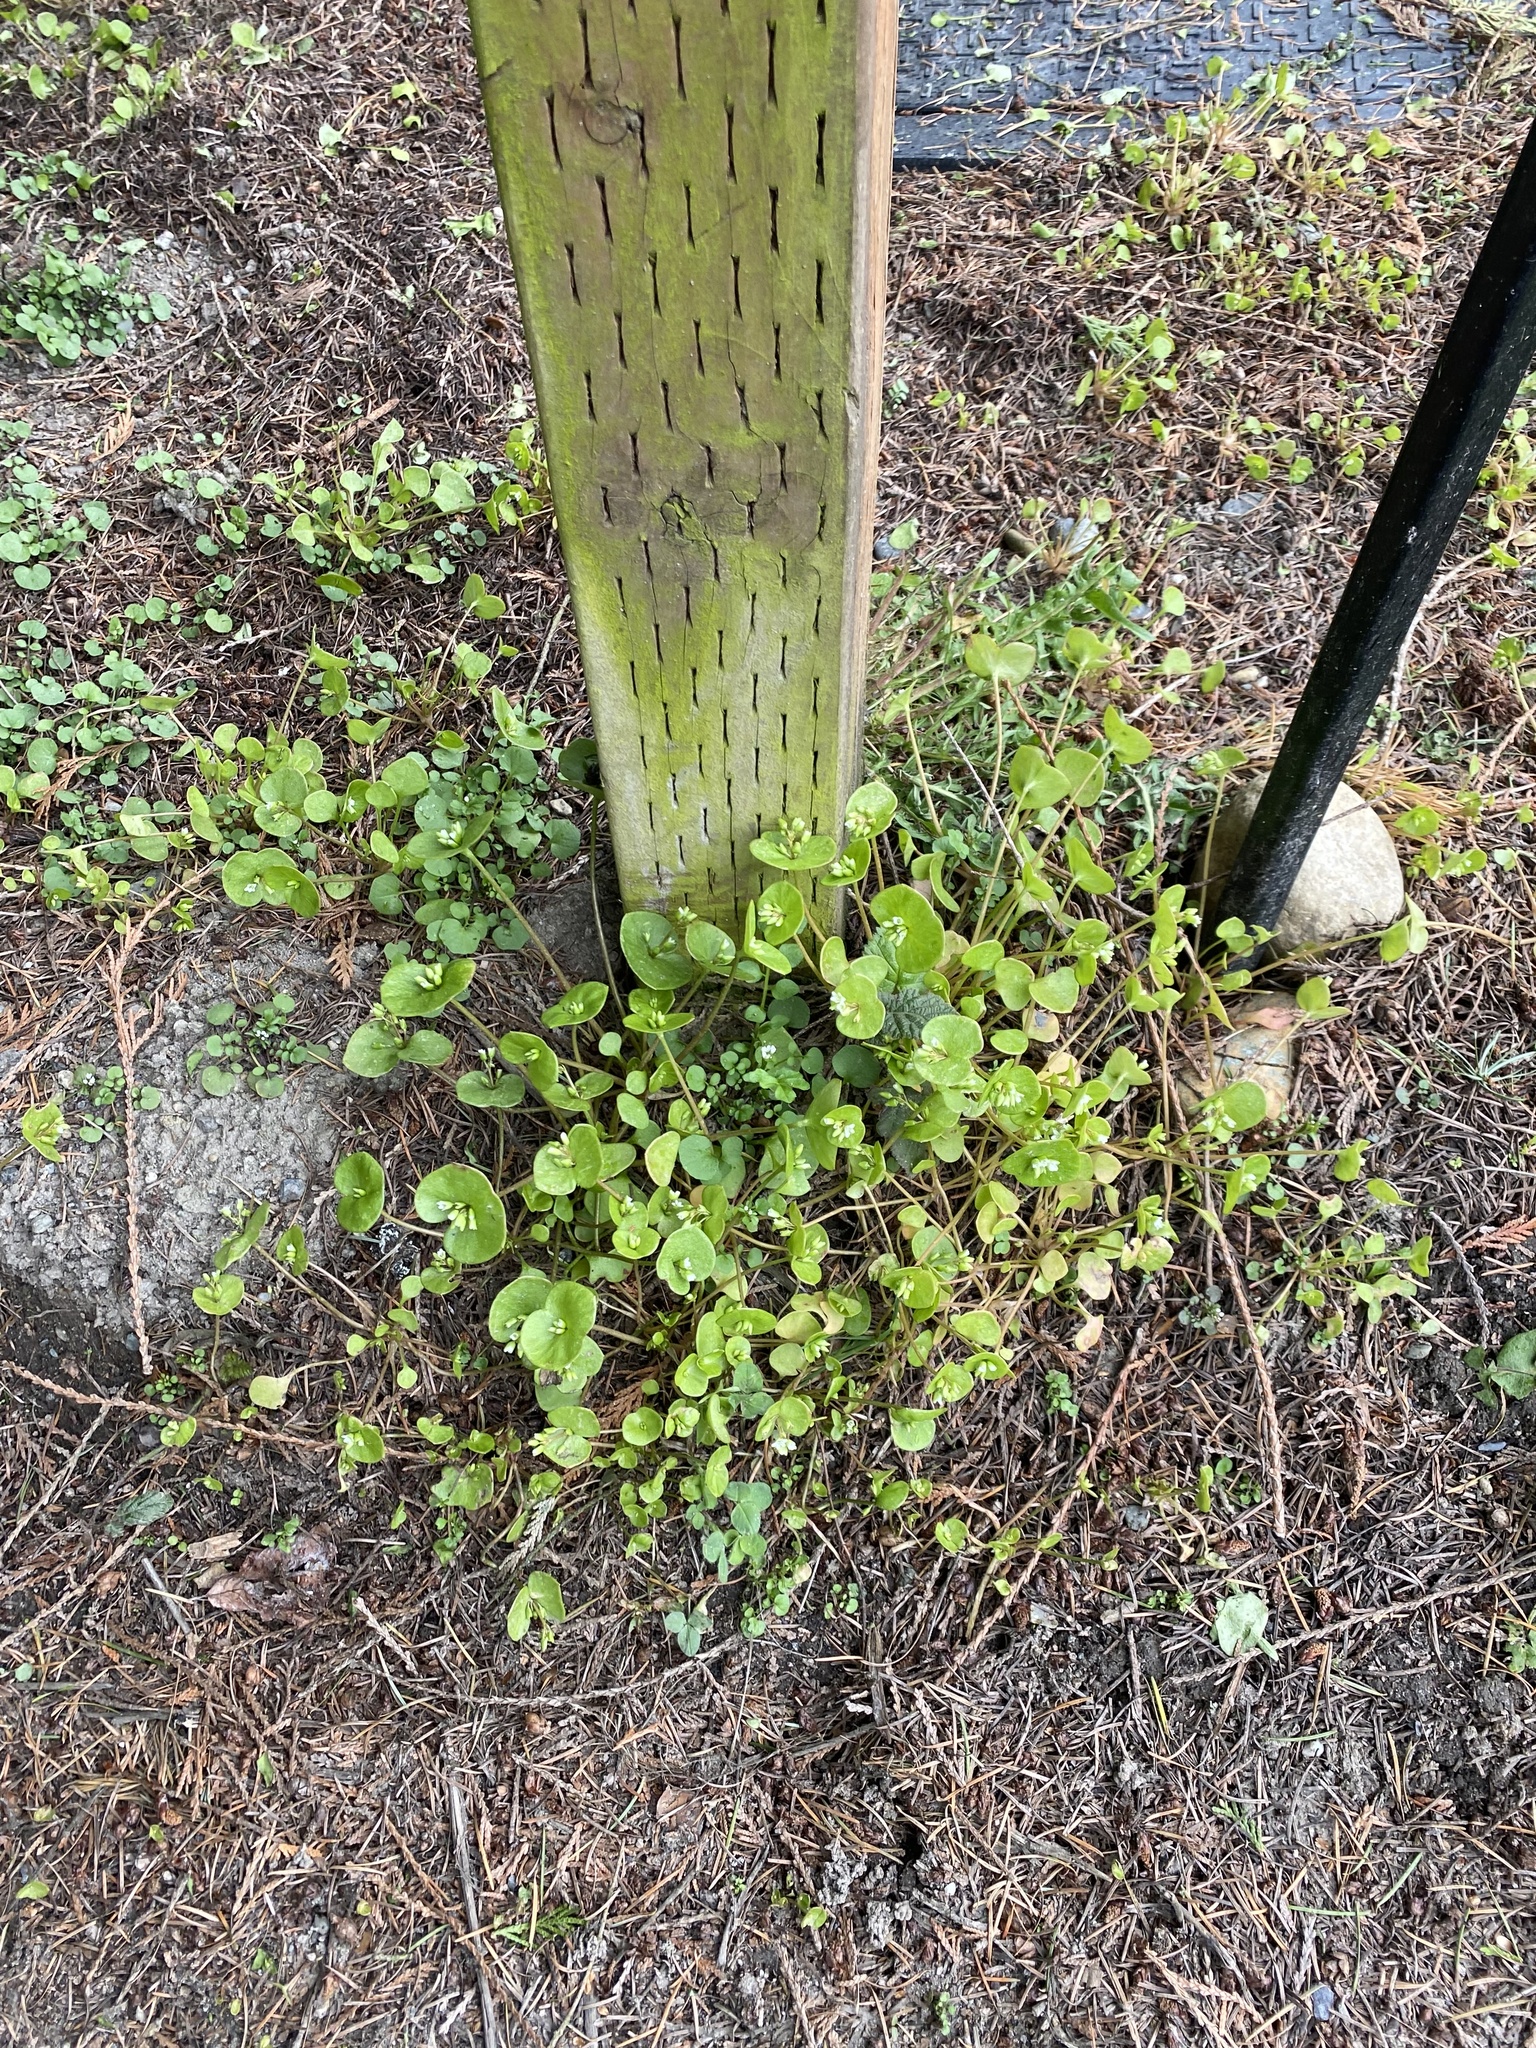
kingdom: Plantae
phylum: Tracheophyta
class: Magnoliopsida
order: Caryophyllales
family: Montiaceae
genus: Claytonia
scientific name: Claytonia perfoliata
